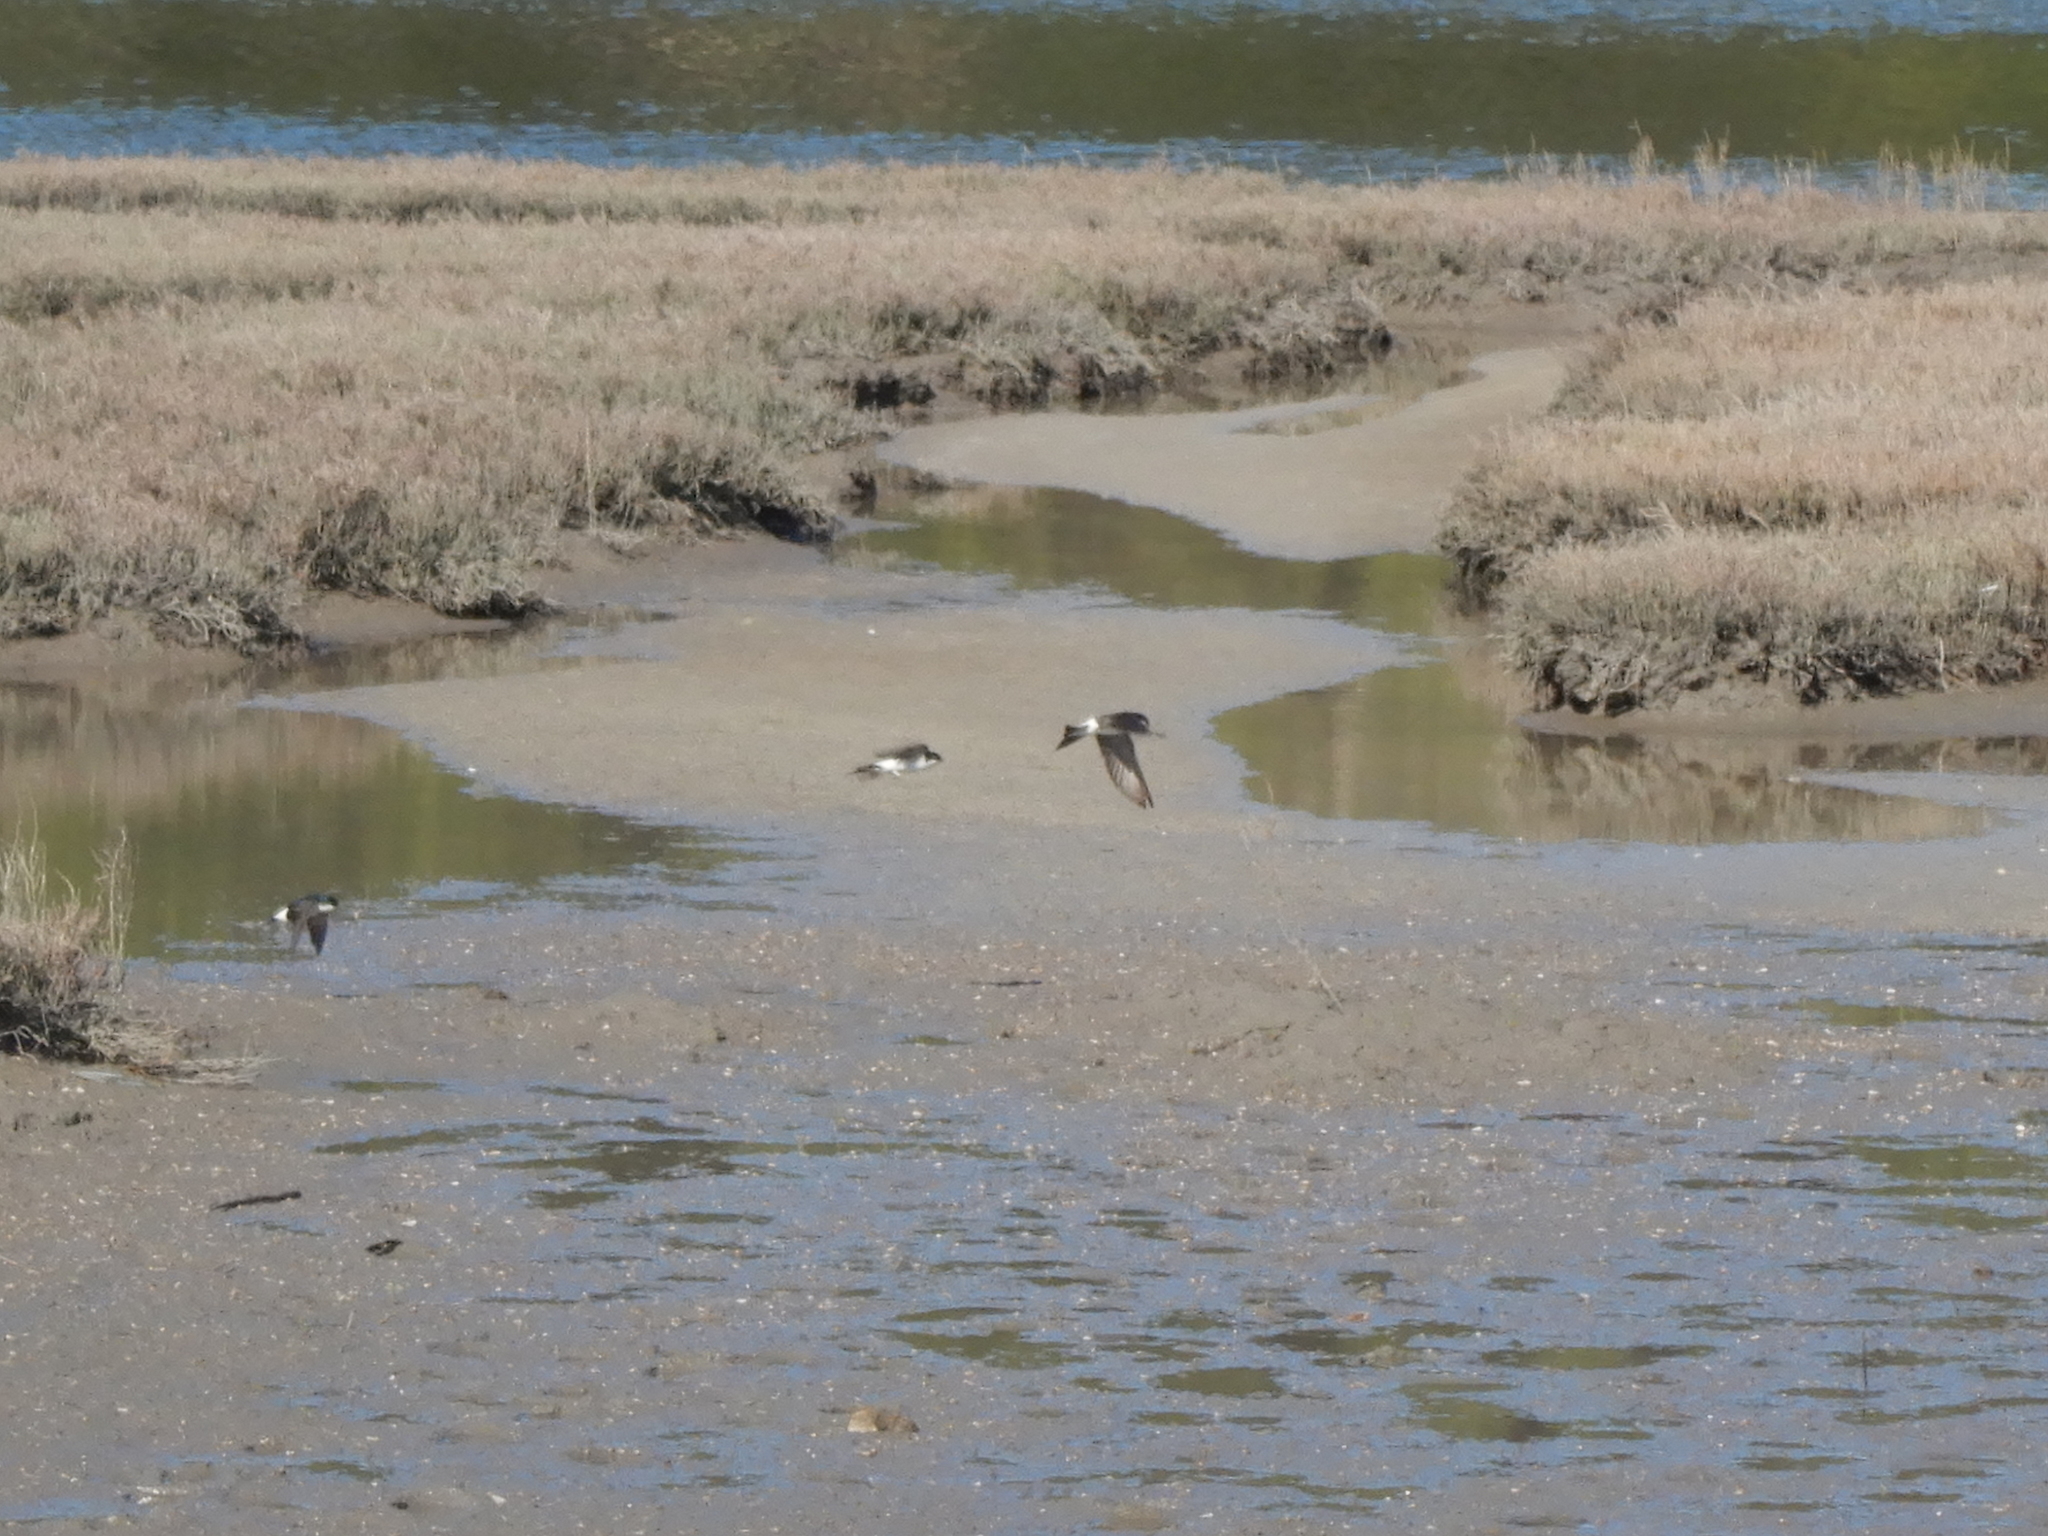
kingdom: Animalia
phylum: Chordata
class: Aves
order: Passeriformes
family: Hirundinidae
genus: Delichon
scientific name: Delichon urbicum
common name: Common house martin
